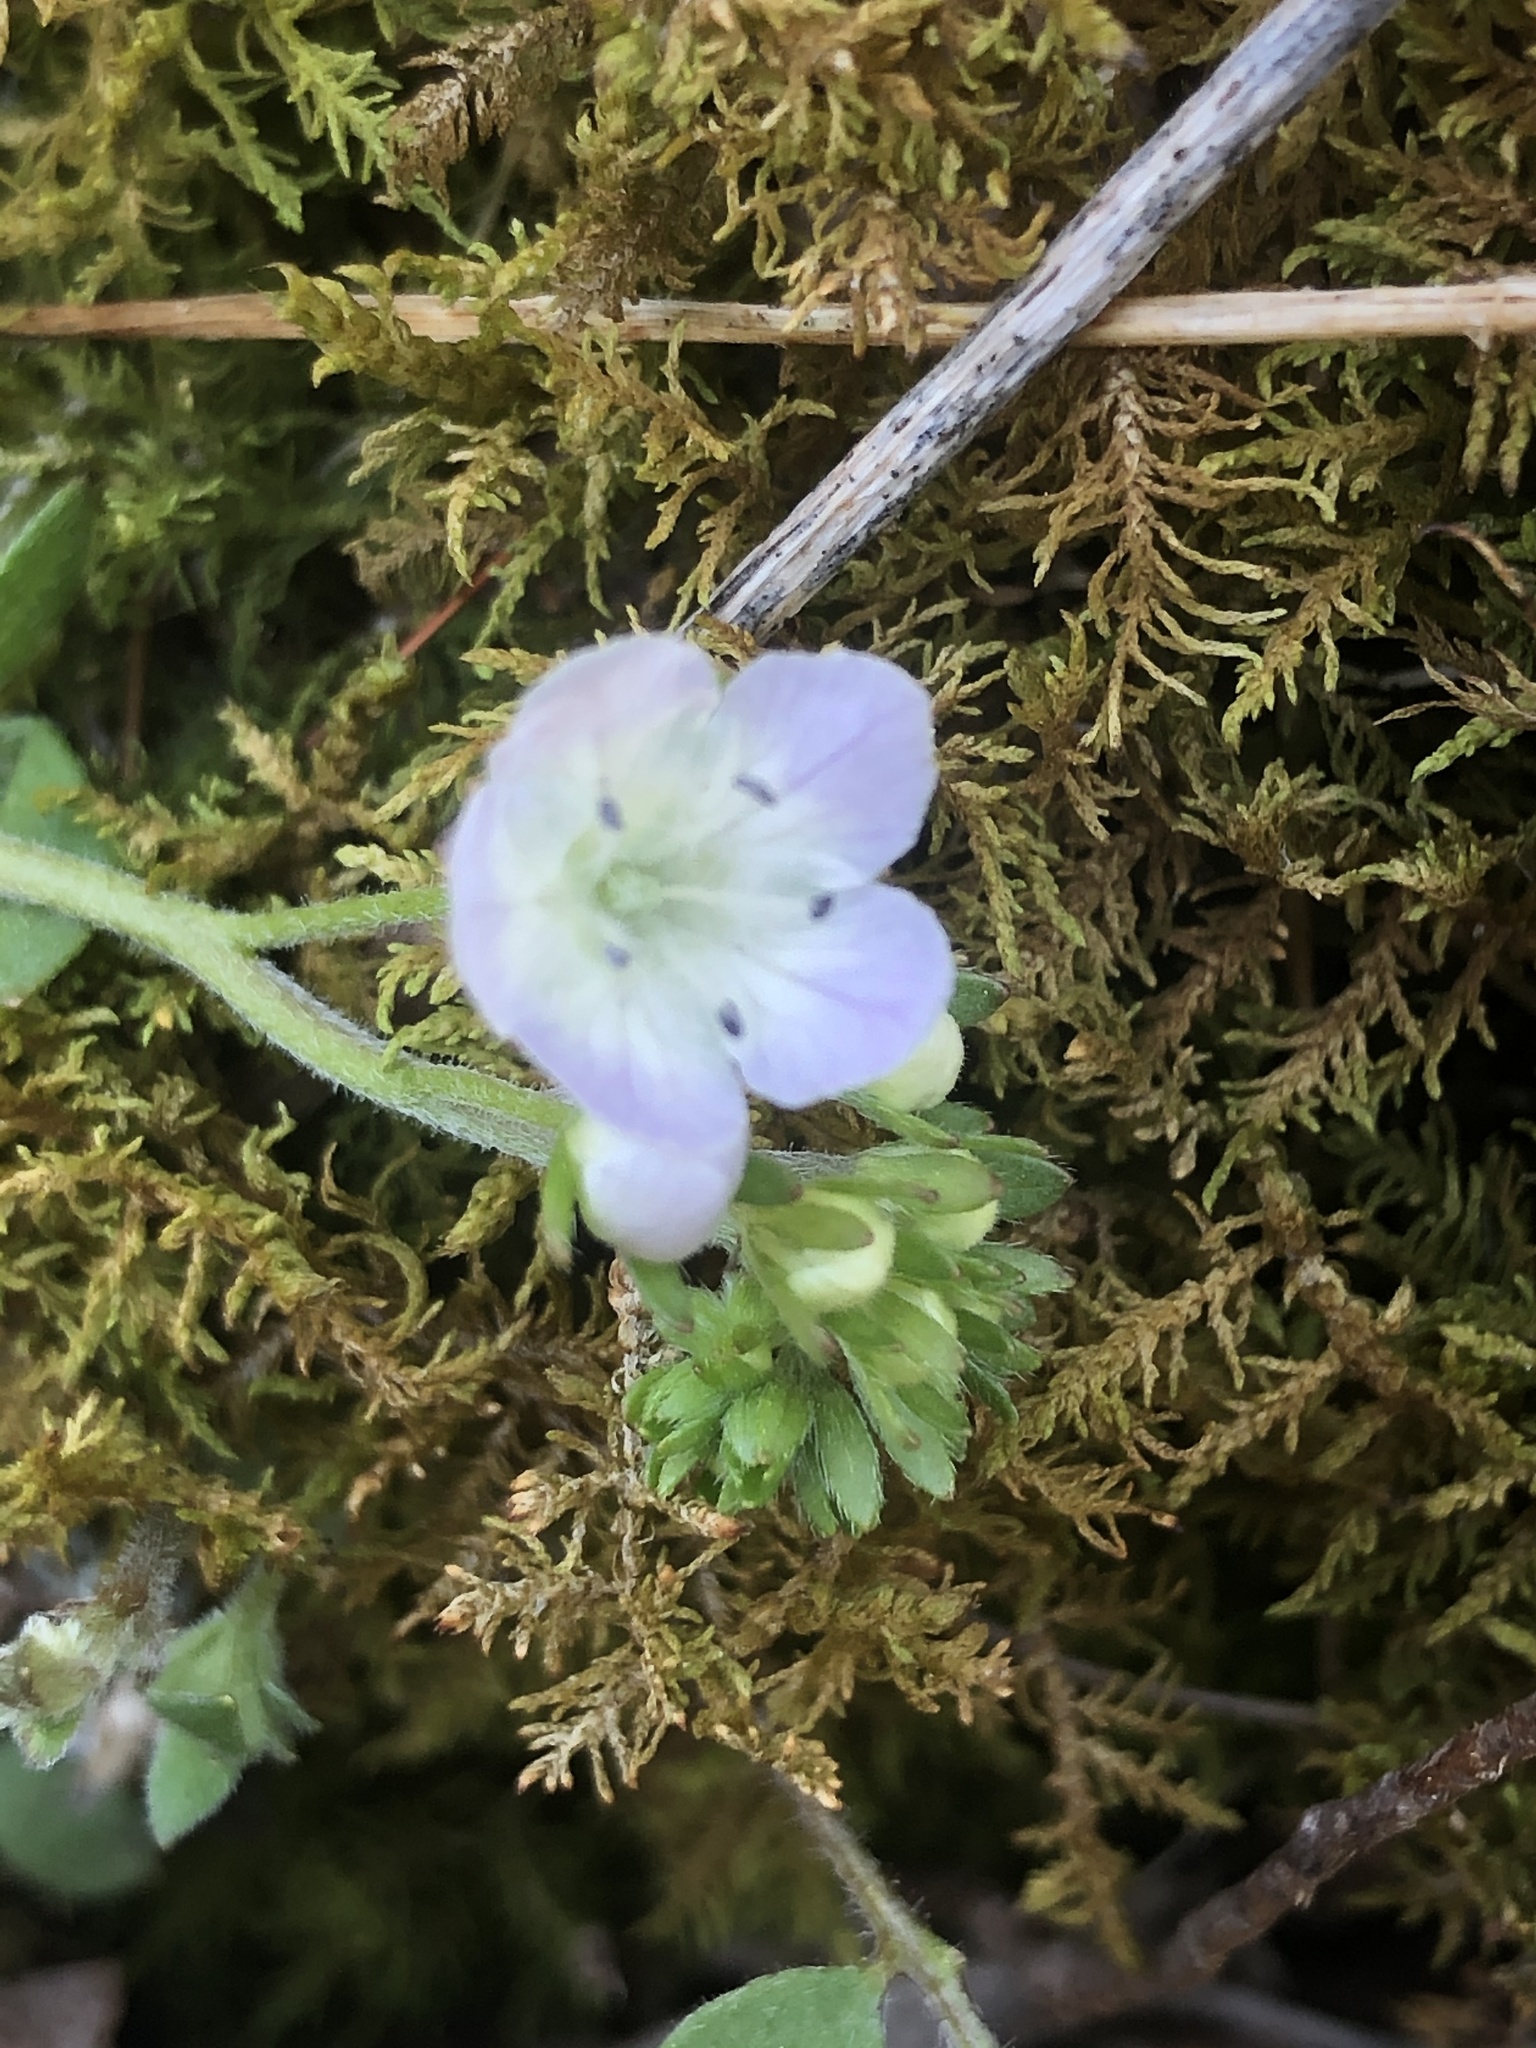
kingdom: Plantae
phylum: Tracheophyta
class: Magnoliopsida
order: Boraginales
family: Hydrophyllaceae
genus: Phacelia
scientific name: Phacelia dubia
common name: Appalachian phacelia
